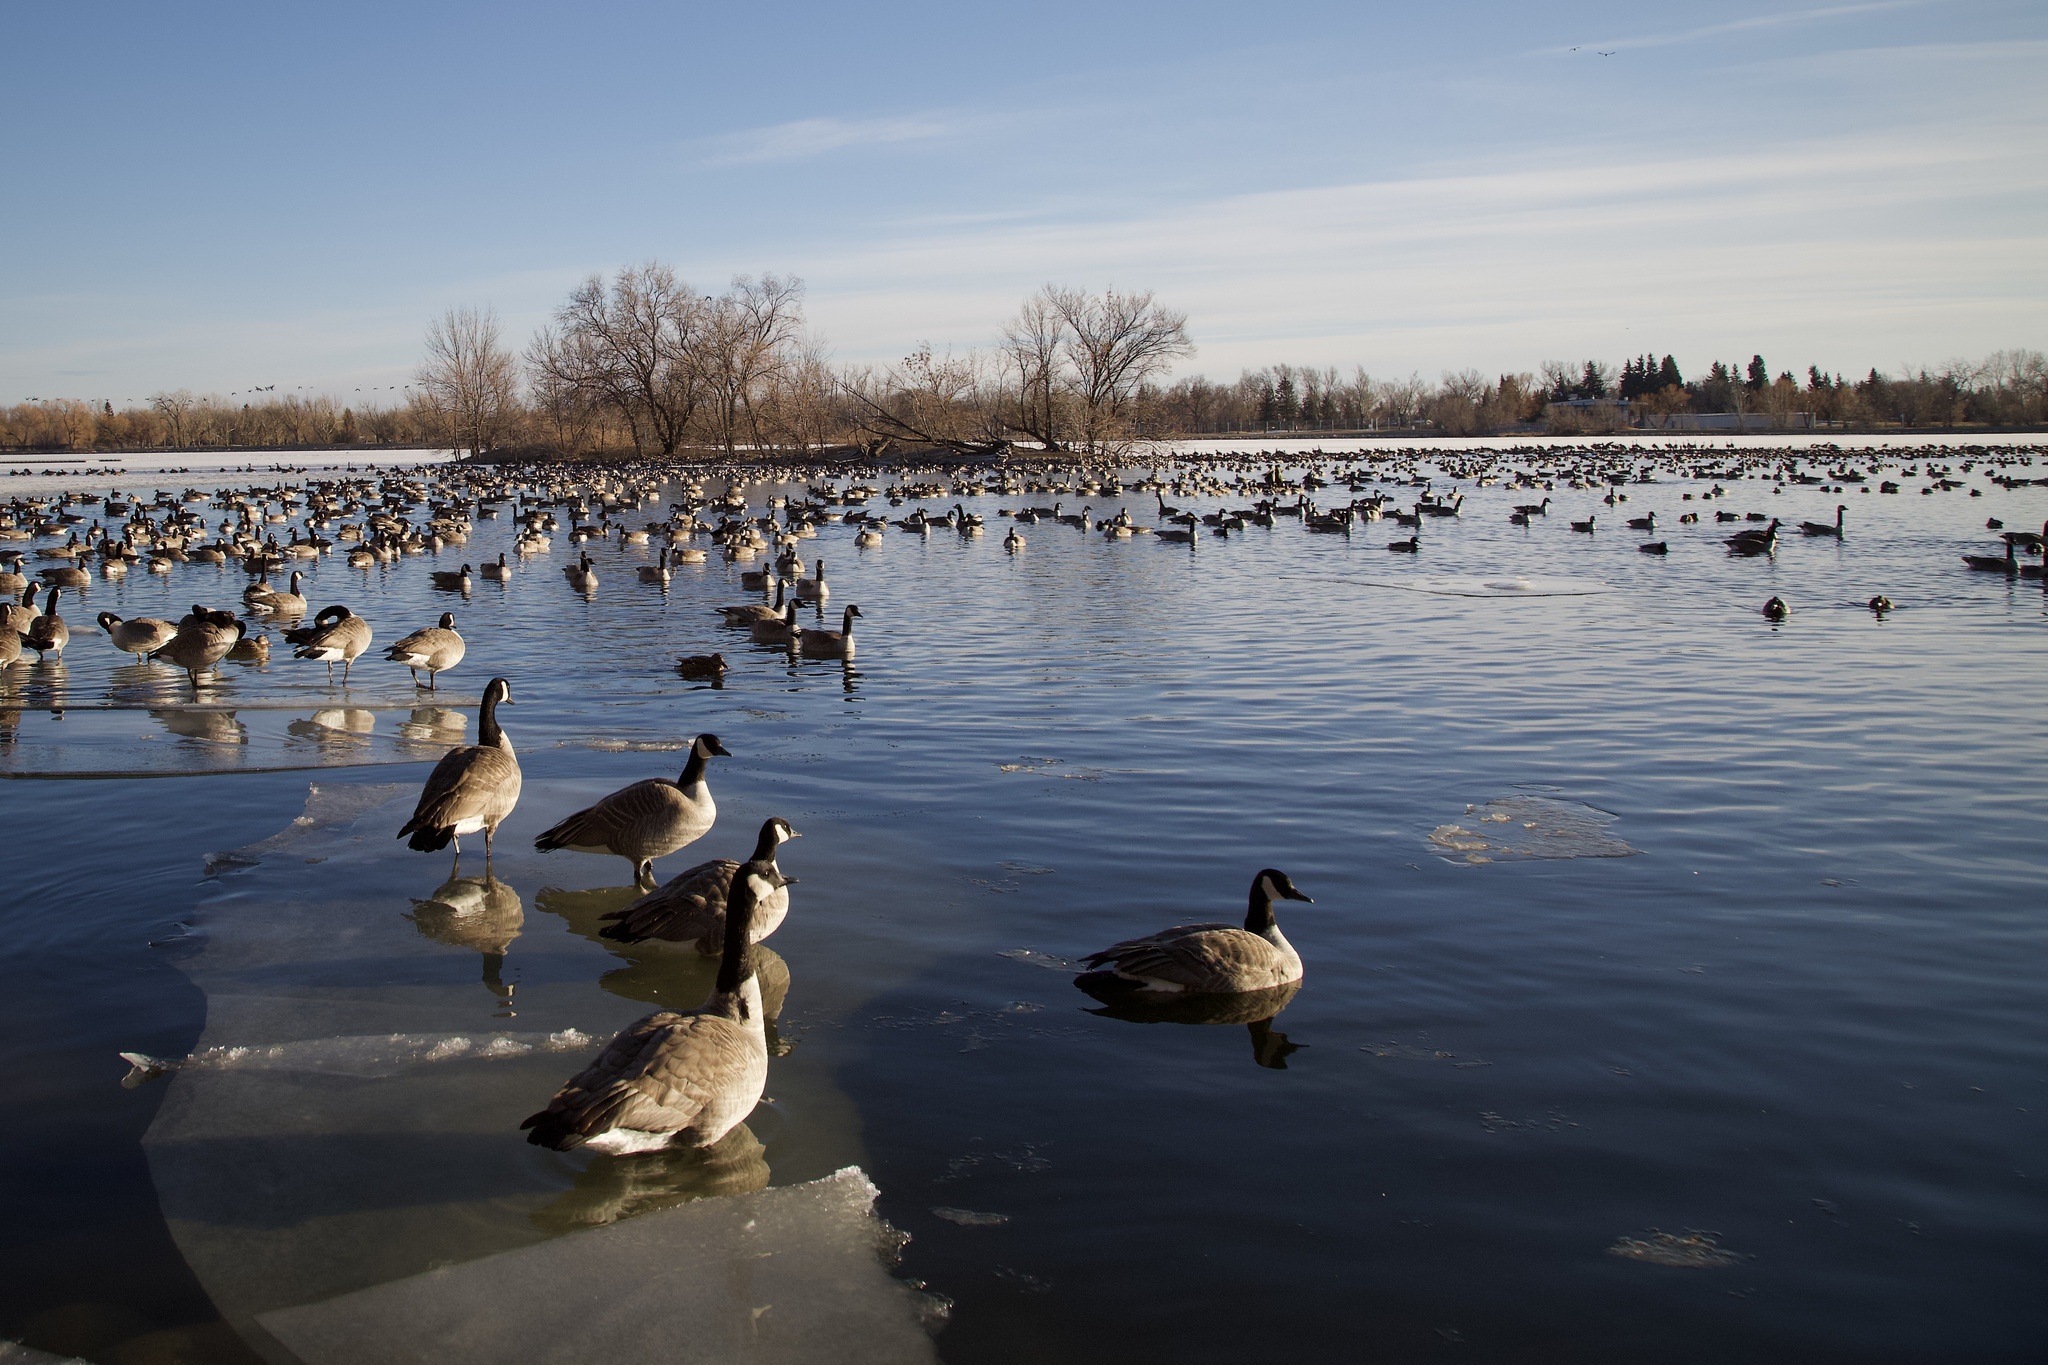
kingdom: Animalia
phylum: Chordata
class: Aves
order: Anseriformes
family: Anatidae
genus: Branta
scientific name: Branta canadensis
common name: Canada goose
